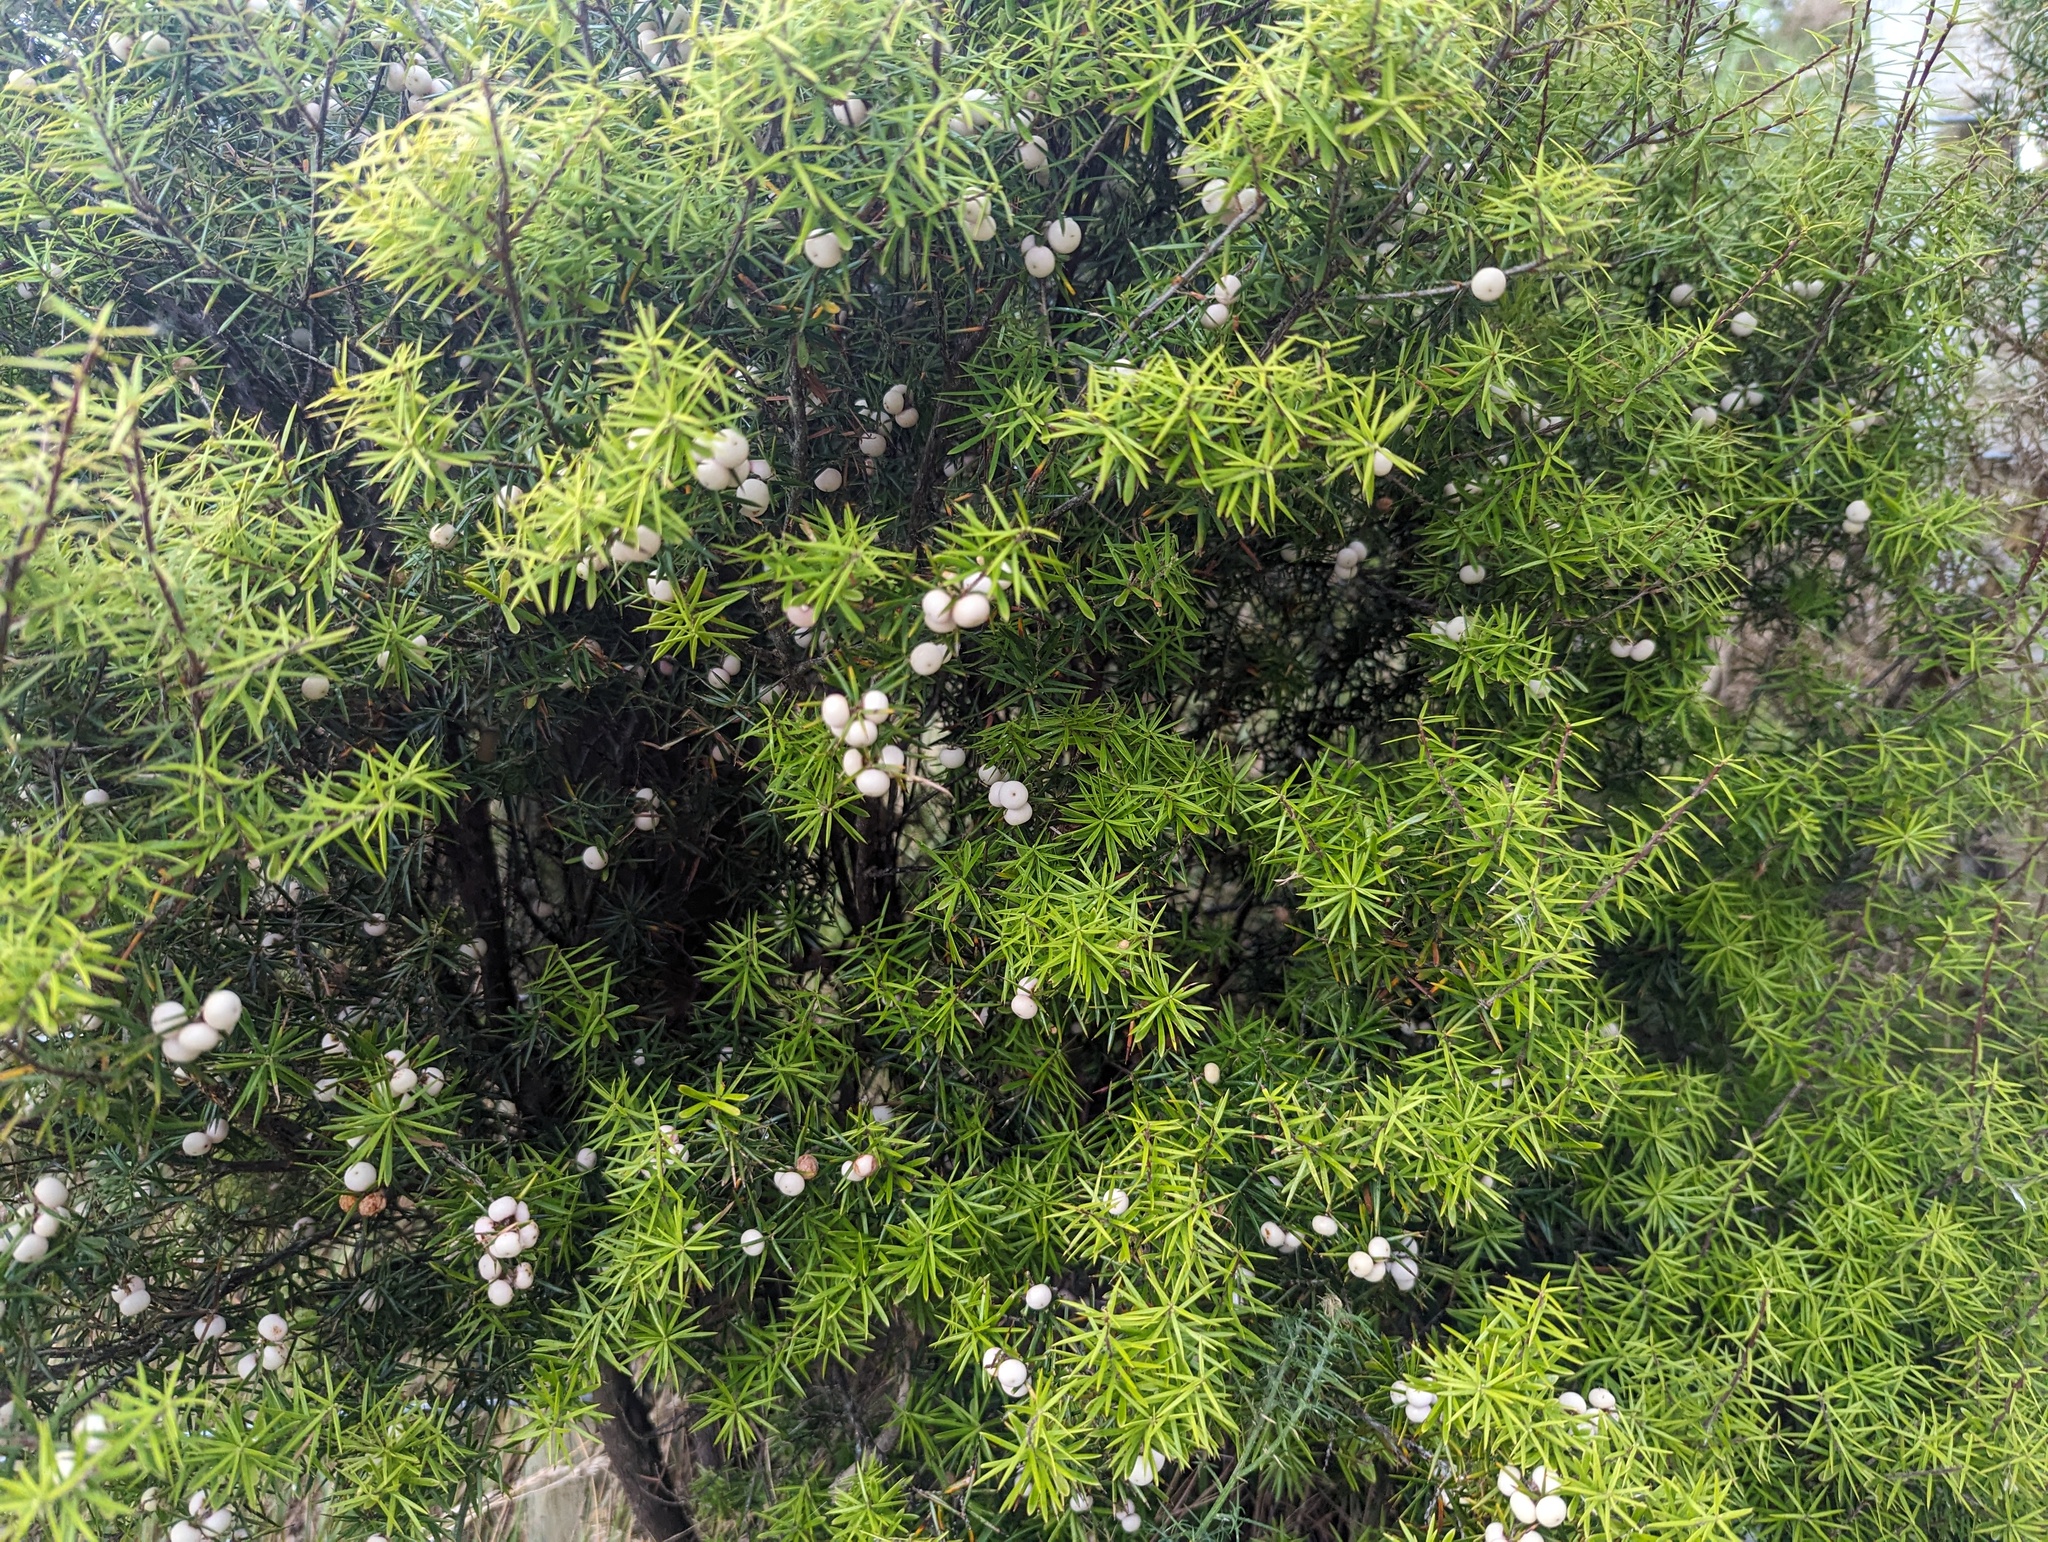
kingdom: Plantae
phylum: Tracheophyta
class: Magnoliopsida
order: Ericales
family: Ericaceae
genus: Leptecophylla
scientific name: Leptecophylla juniperina
